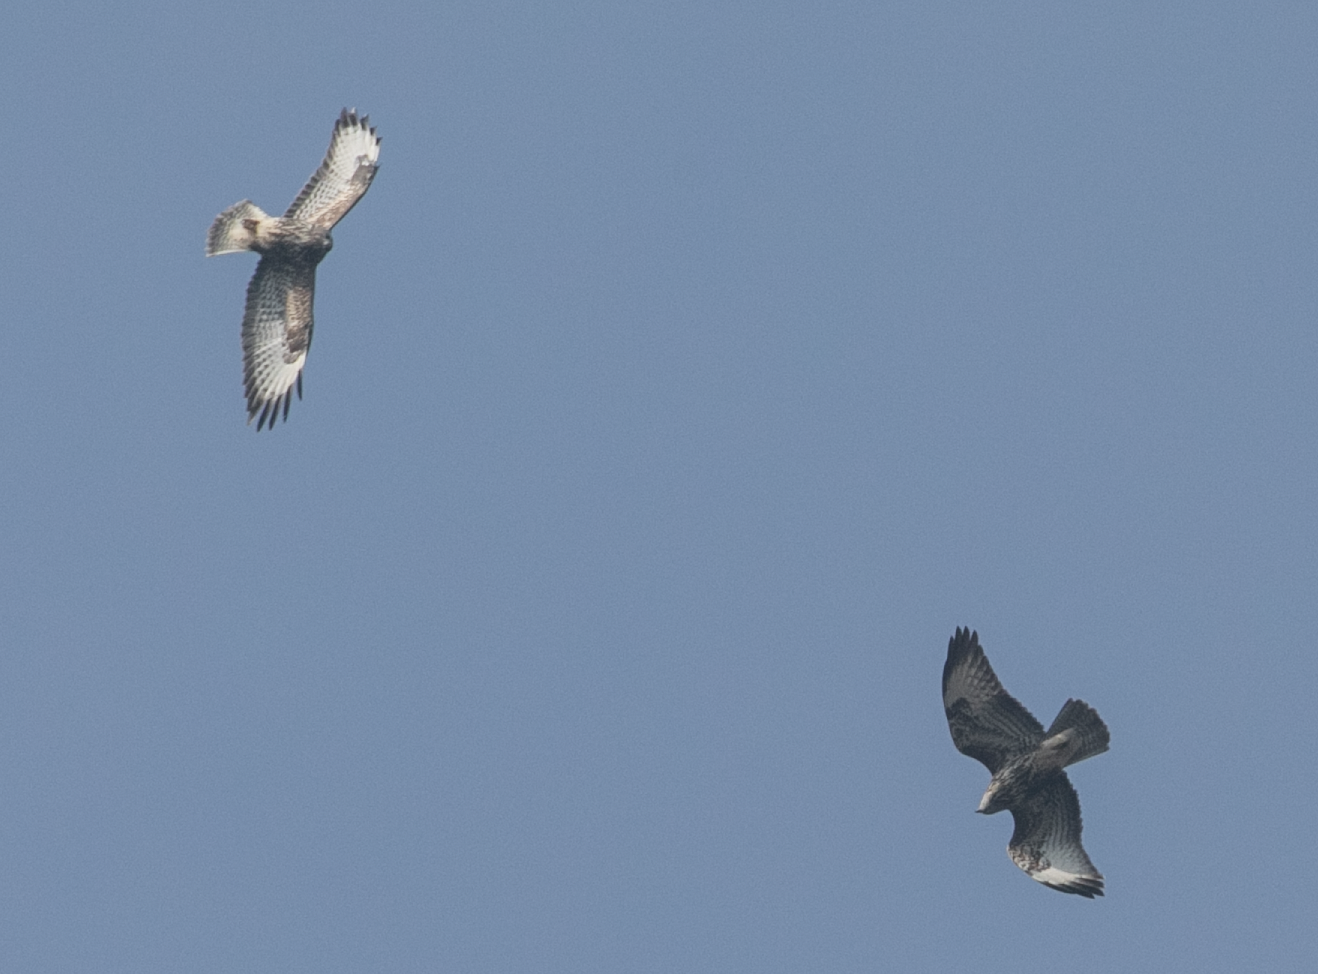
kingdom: Animalia
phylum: Chordata
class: Aves
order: Accipitriformes
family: Accipitridae
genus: Buteo
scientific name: Buteo buteo
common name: Common buzzard
